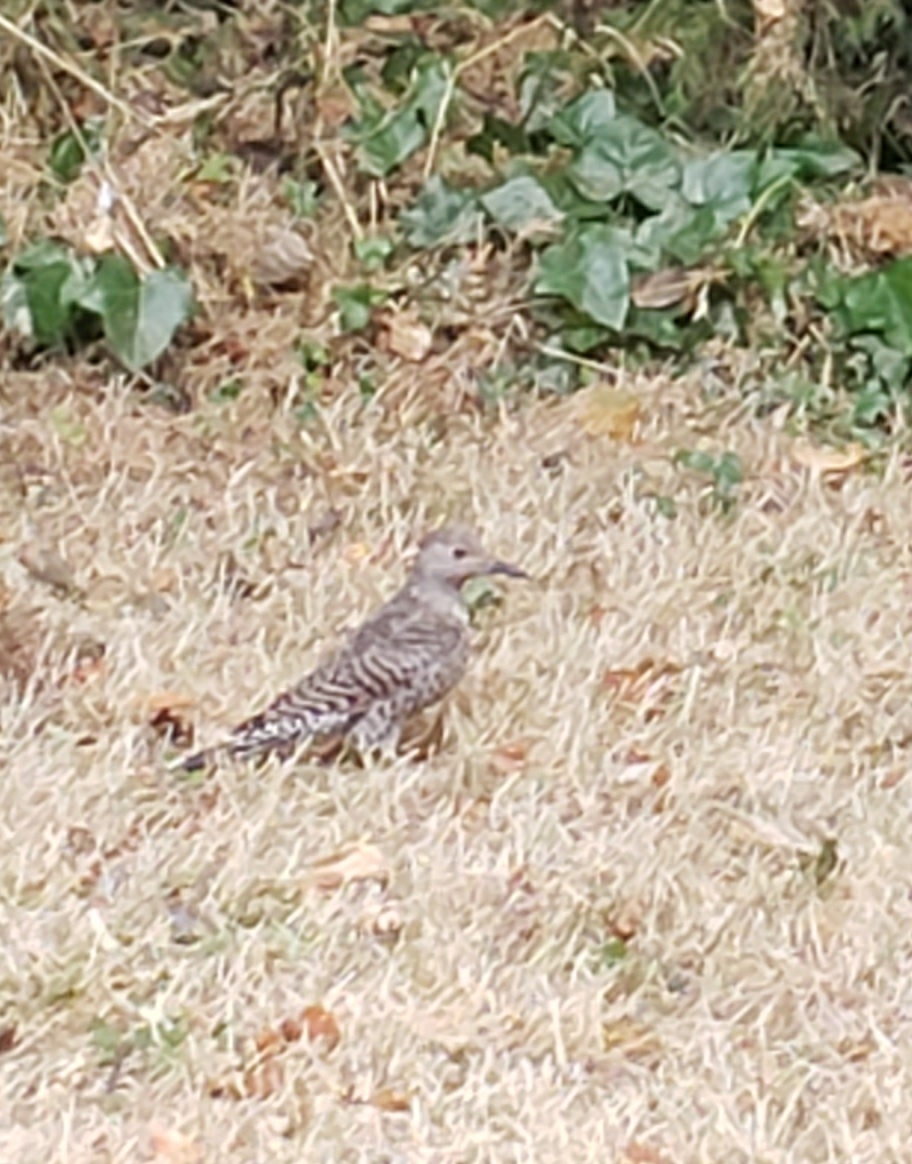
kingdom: Animalia
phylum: Chordata
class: Aves
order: Piciformes
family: Picidae
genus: Colaptes
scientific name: Colaptes auratus
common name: Northern flicker
